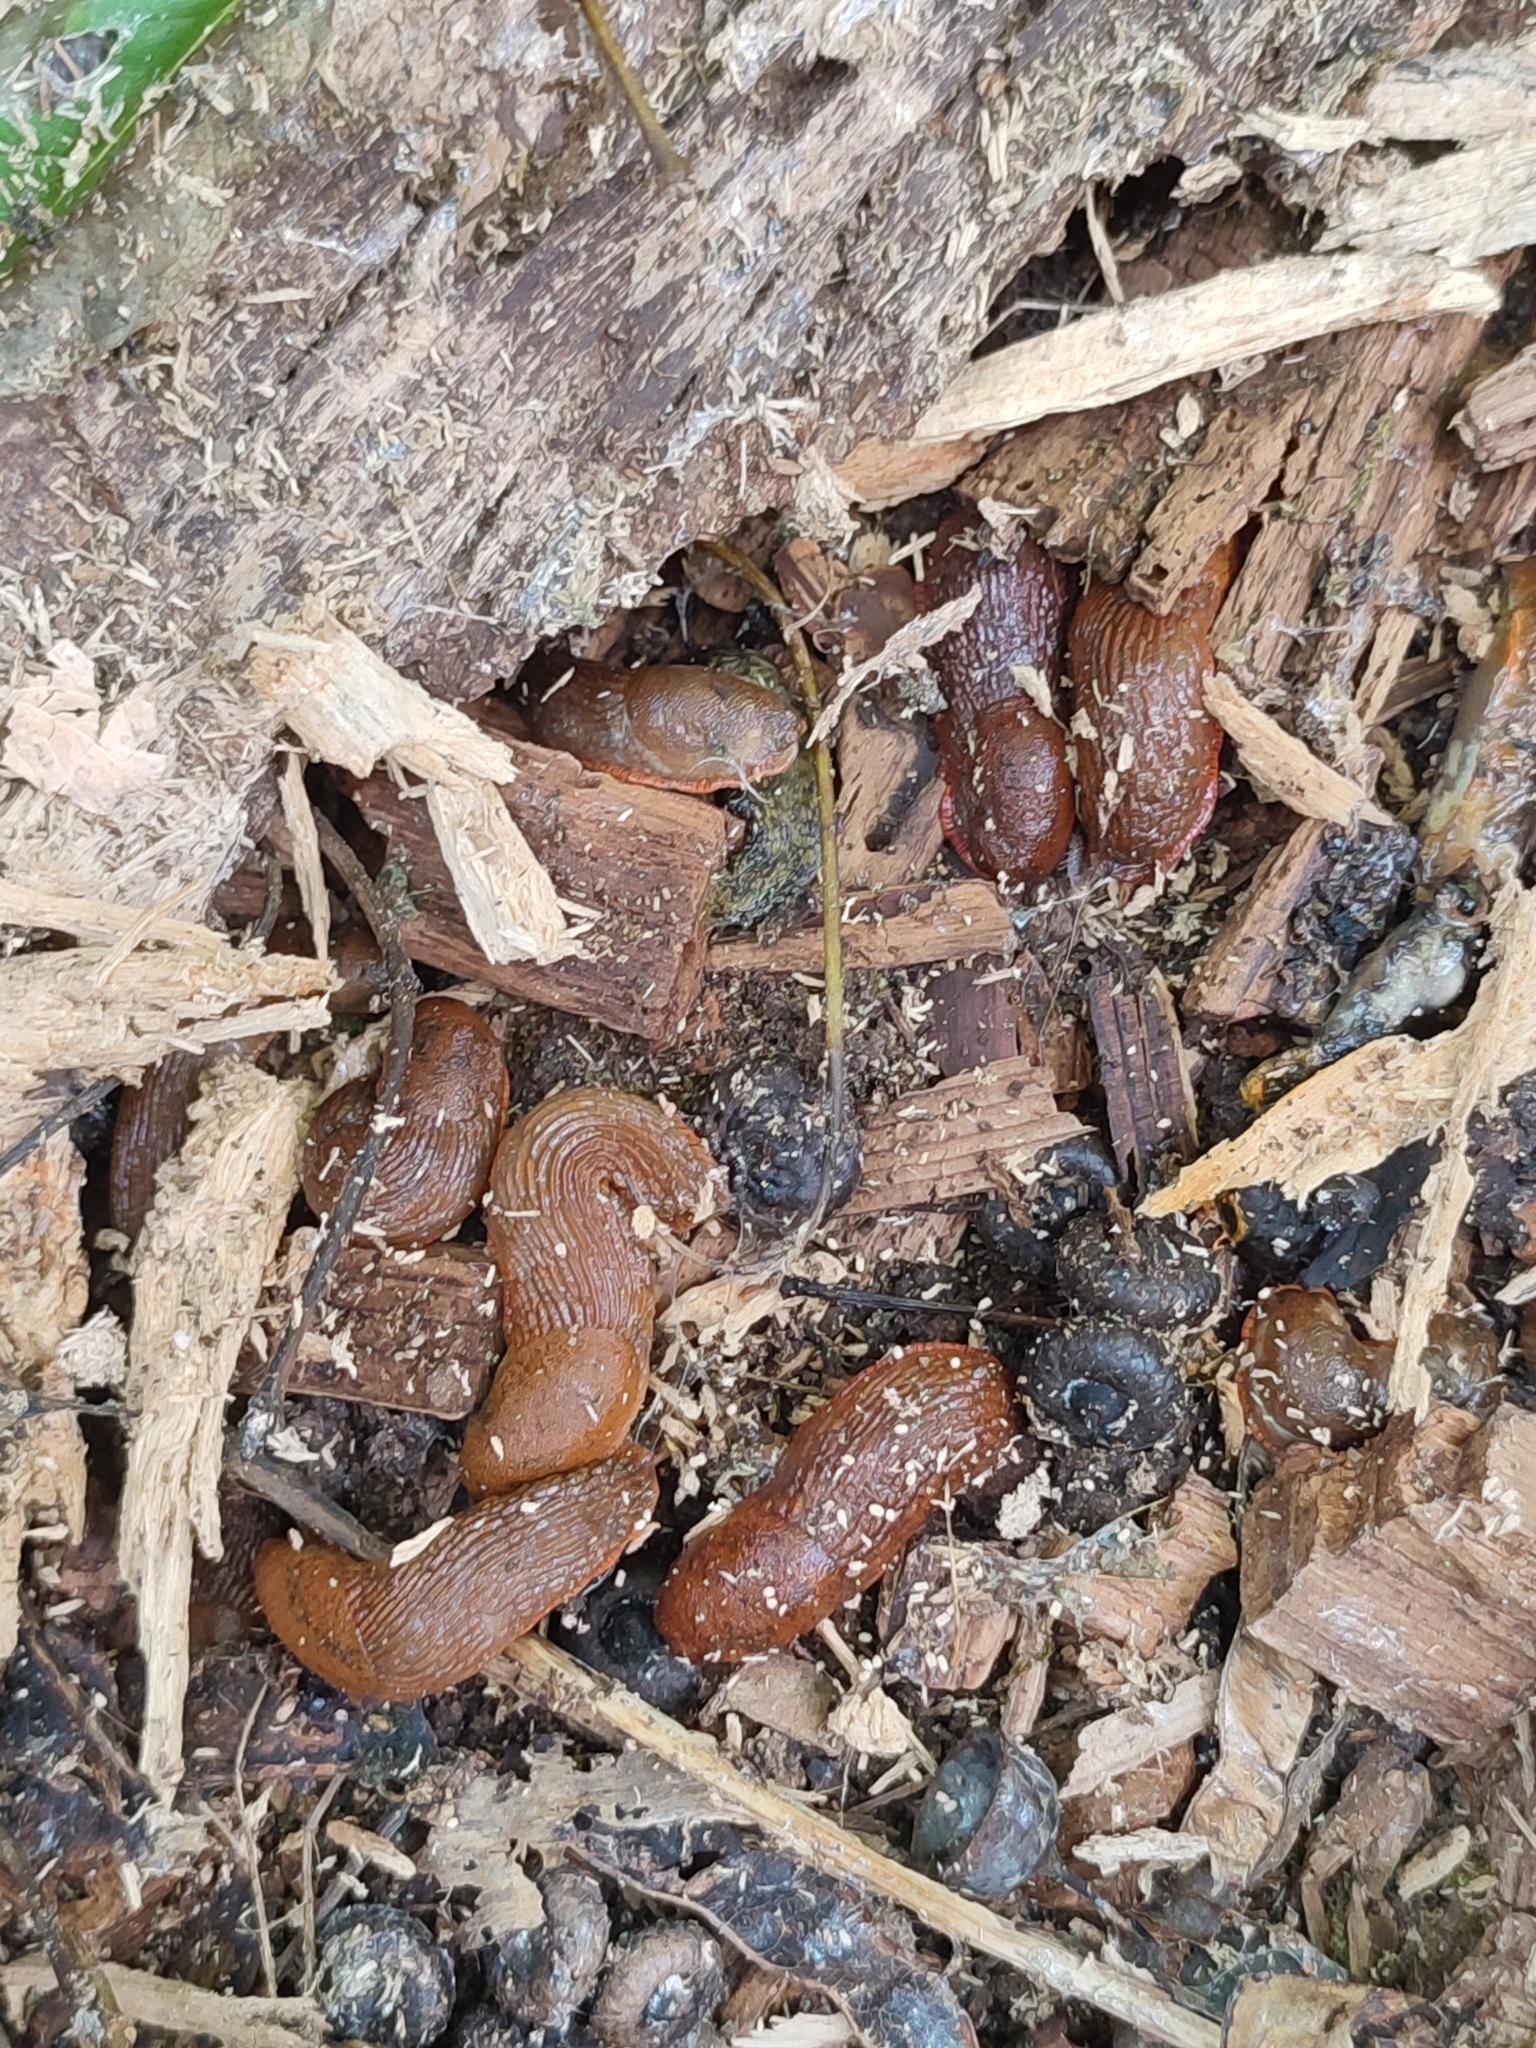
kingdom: Animalia
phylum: Mollusca
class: Gastropoda
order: Stylommatophora
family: Arionidae
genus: Arion
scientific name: Arion vulgaris
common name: Lusitanian slug
